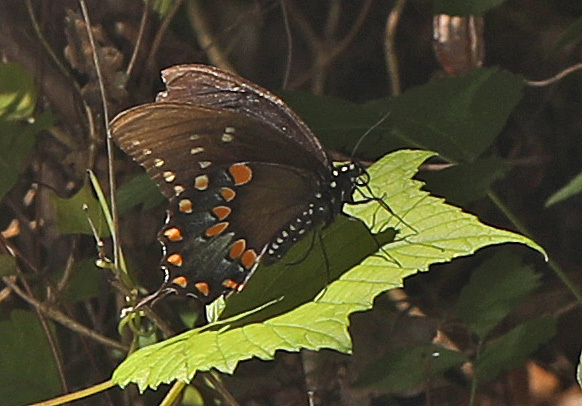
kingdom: Animalia
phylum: Arthropoda
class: Insecta
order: Lepidoptera
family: Papilionidae
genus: Papilio
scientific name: Papilio troilus
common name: Spicebush swallowtail
